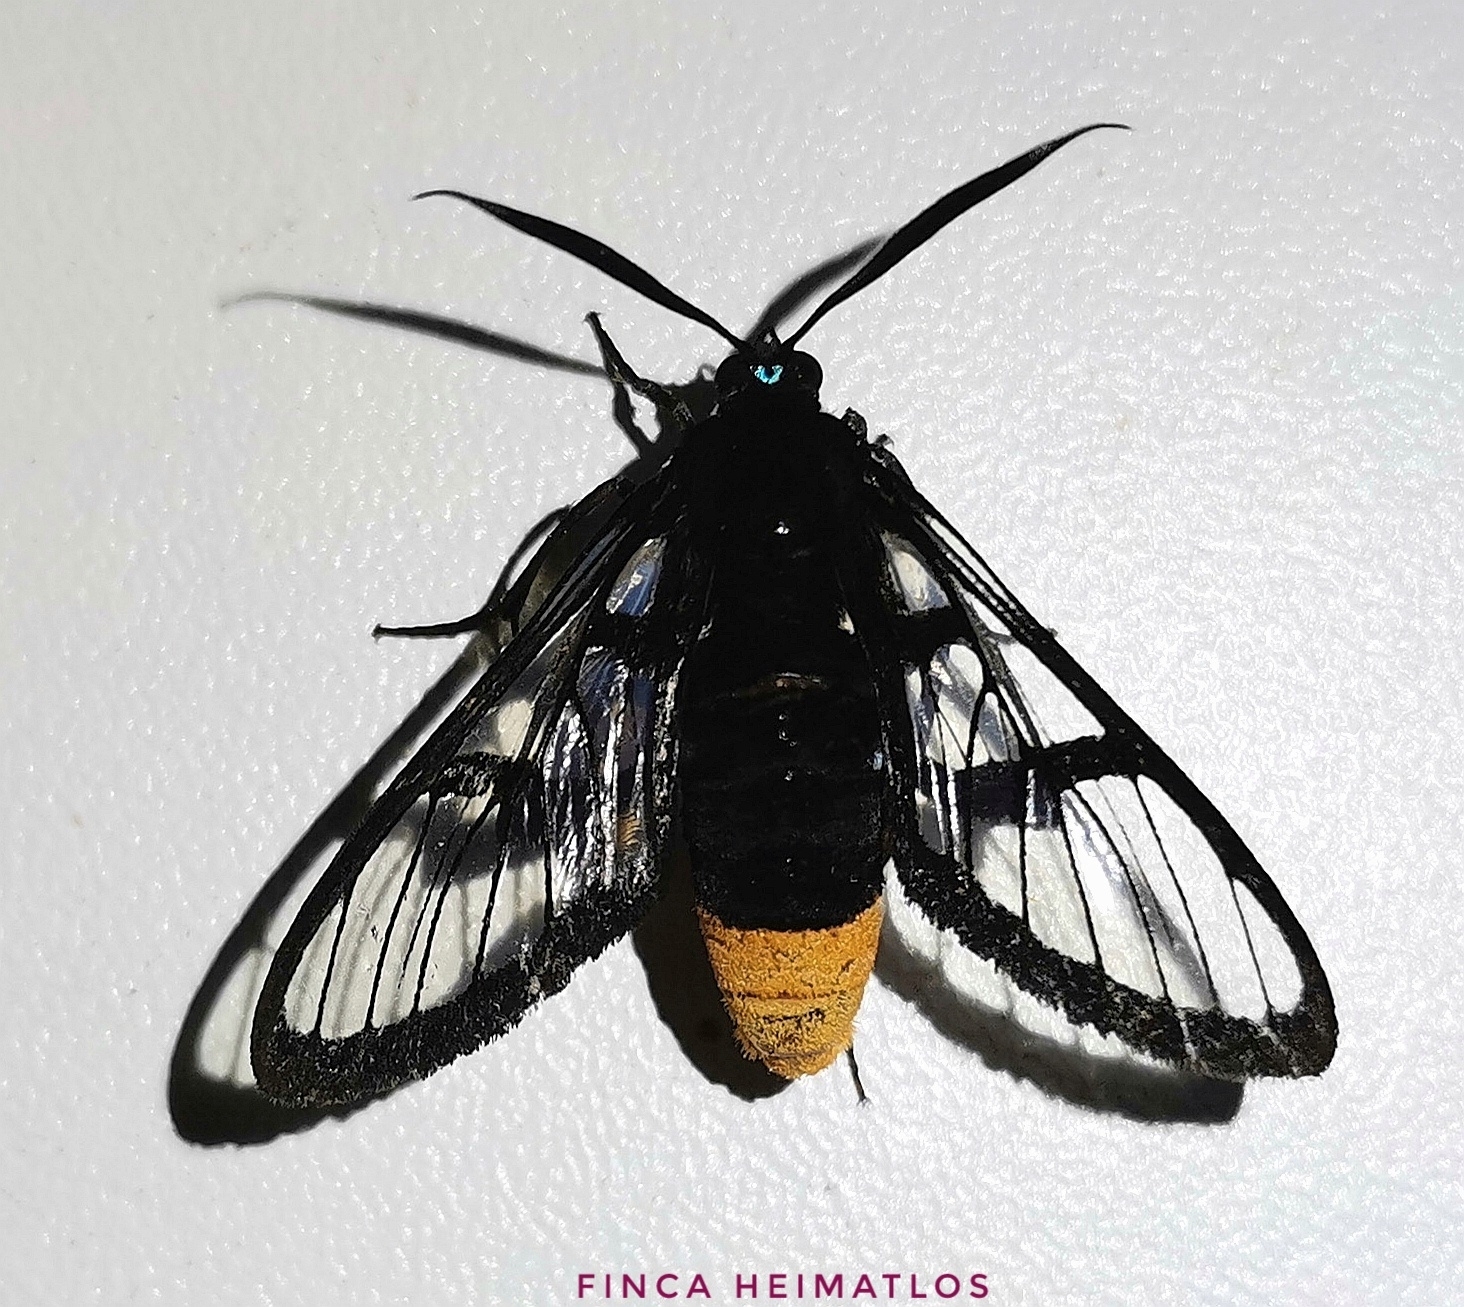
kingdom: Animalia
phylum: Arthropoda
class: Insecta
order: Lepidoptera
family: Erebidae
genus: Osmocneme
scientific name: Osmocneme bracata
